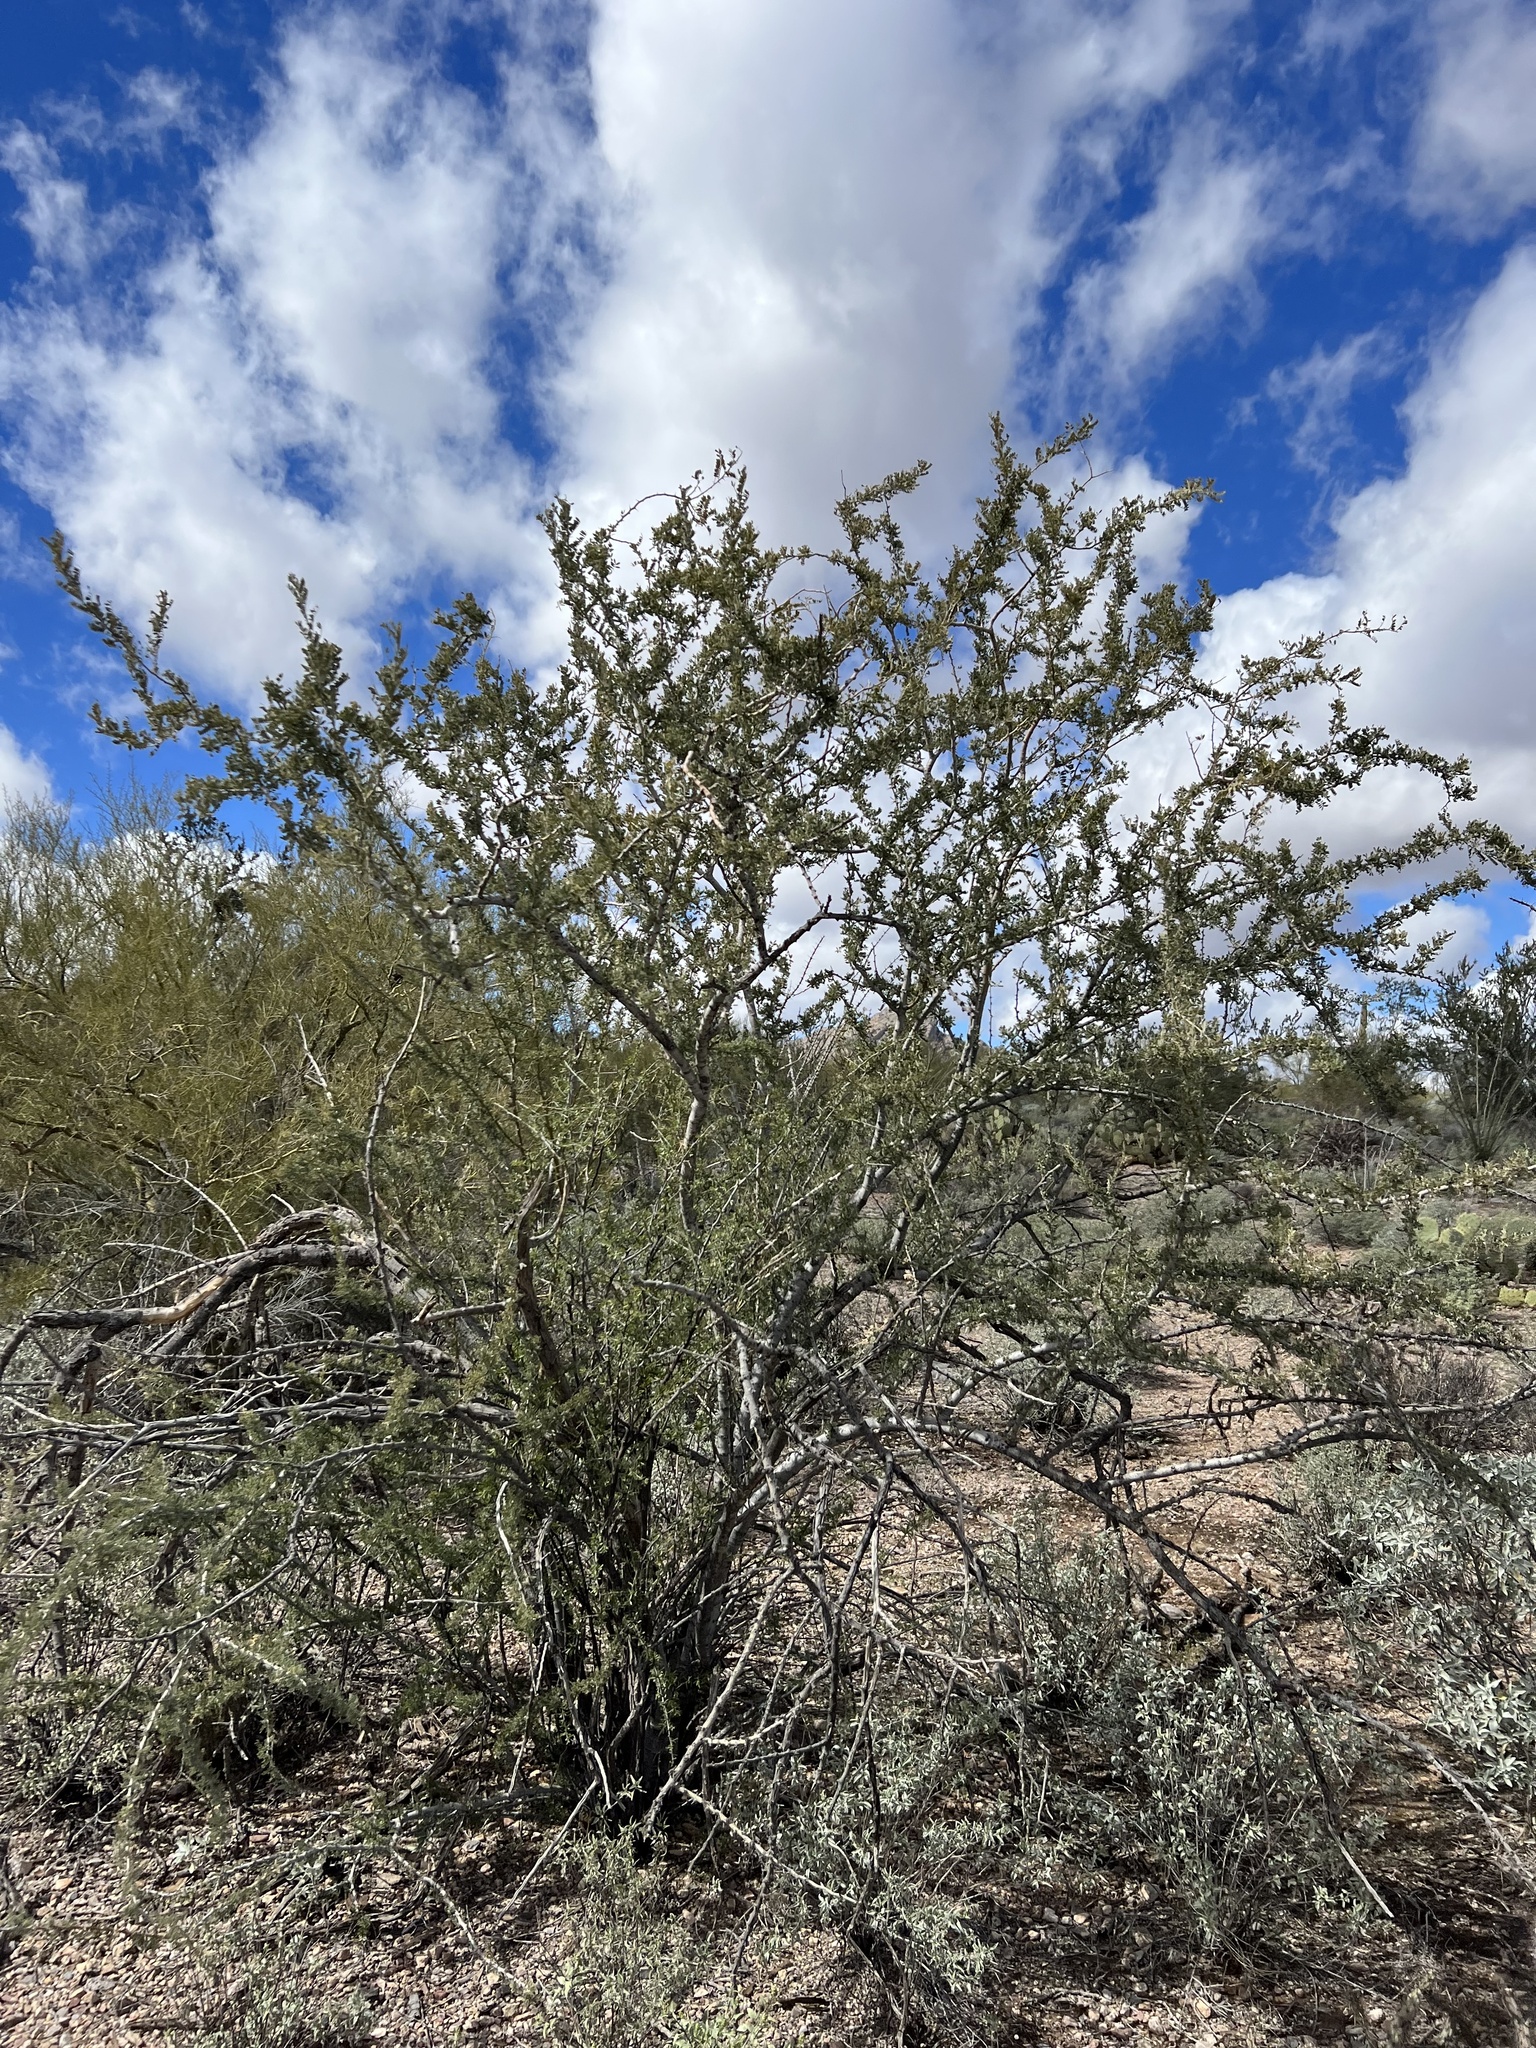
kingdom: Plantae
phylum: Tracheophyta
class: Magnoliopsida
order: Fabales
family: Fabaceae
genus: Olneya
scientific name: Olneya tesota
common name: Desert ironwood
